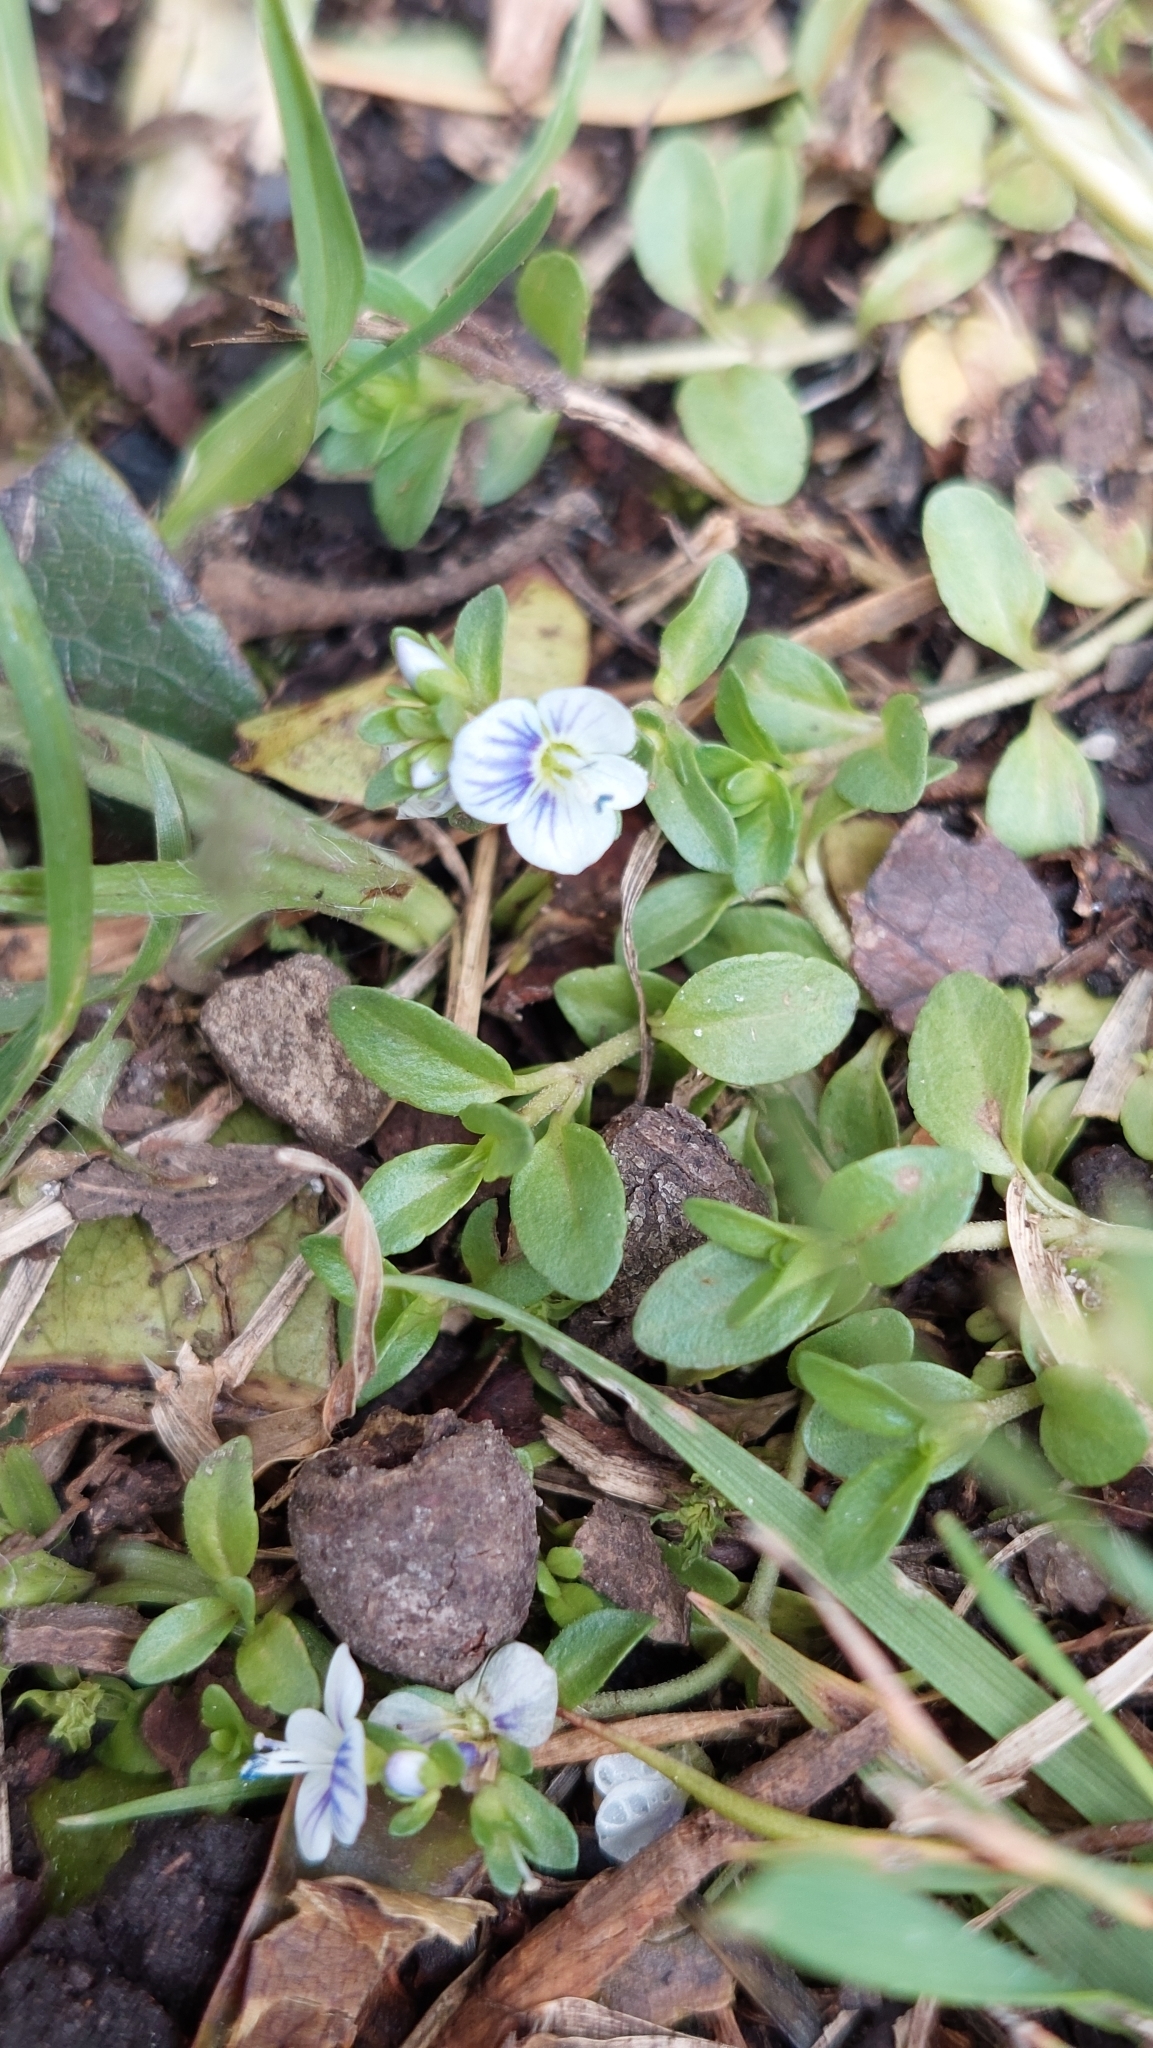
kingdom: Plantae
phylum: Tracheophyta
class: Magnoliopsida
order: Lamiales
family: Plantaginaceae
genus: Veronica
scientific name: Veronica serpyllifolia
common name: Thyme-leaved speedwell
